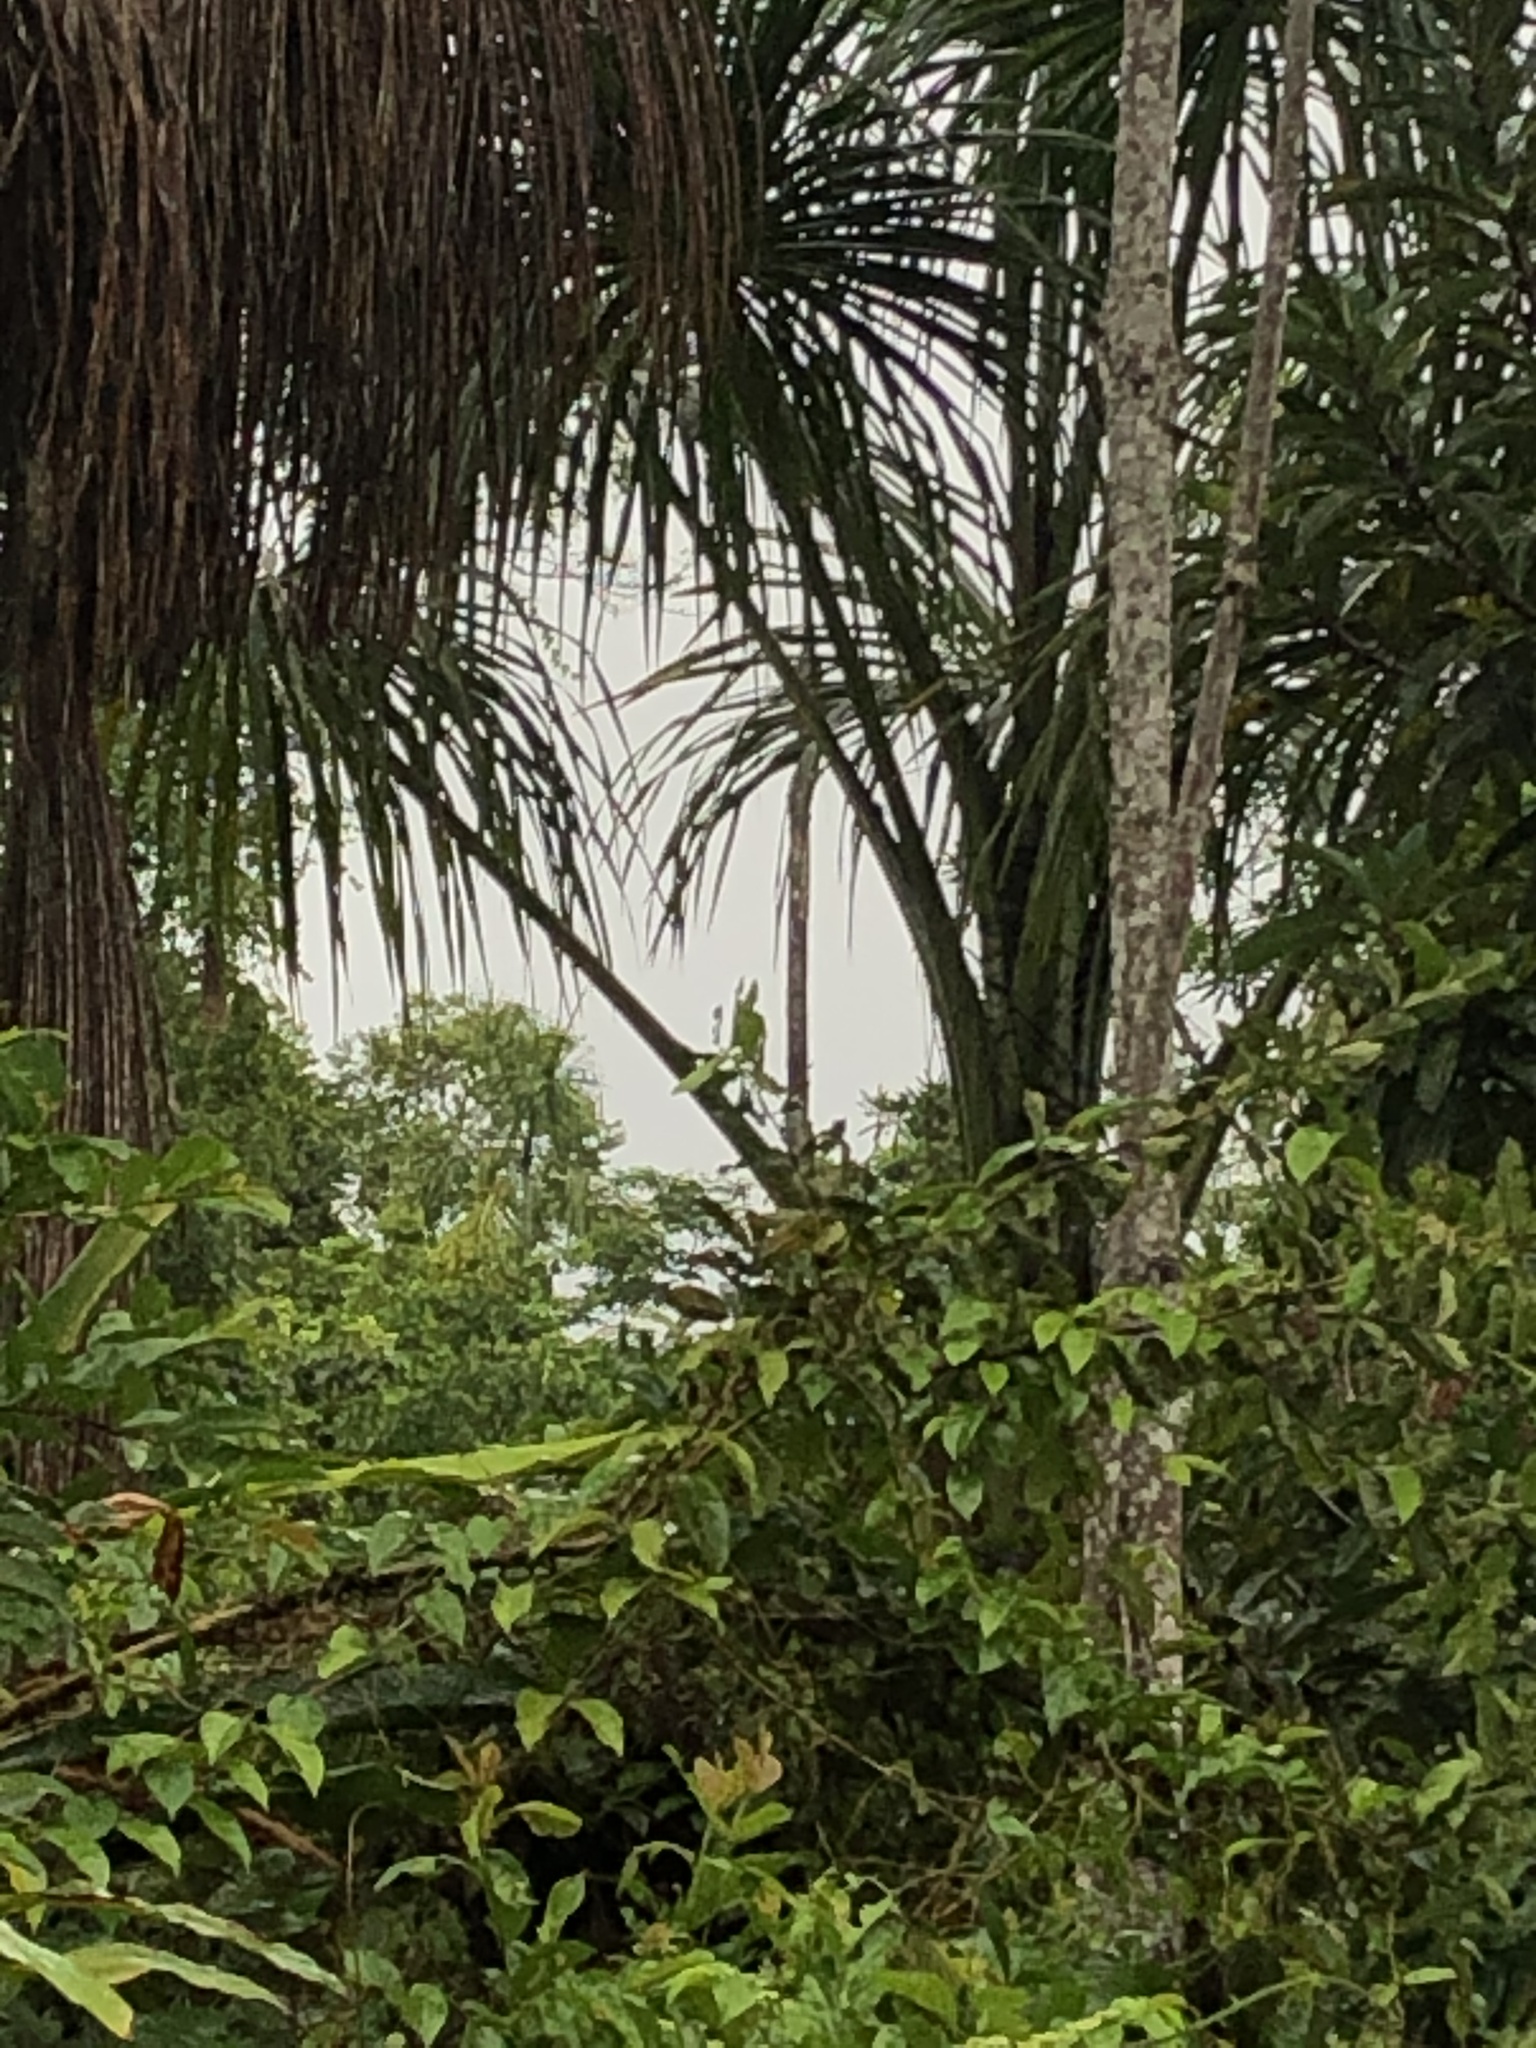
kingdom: Plantae
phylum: Tracheophyta
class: Liliopsida
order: Arecales
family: Arecaceae
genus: Mauritia
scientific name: Mauritia flexuosa
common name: Tree-of-life
